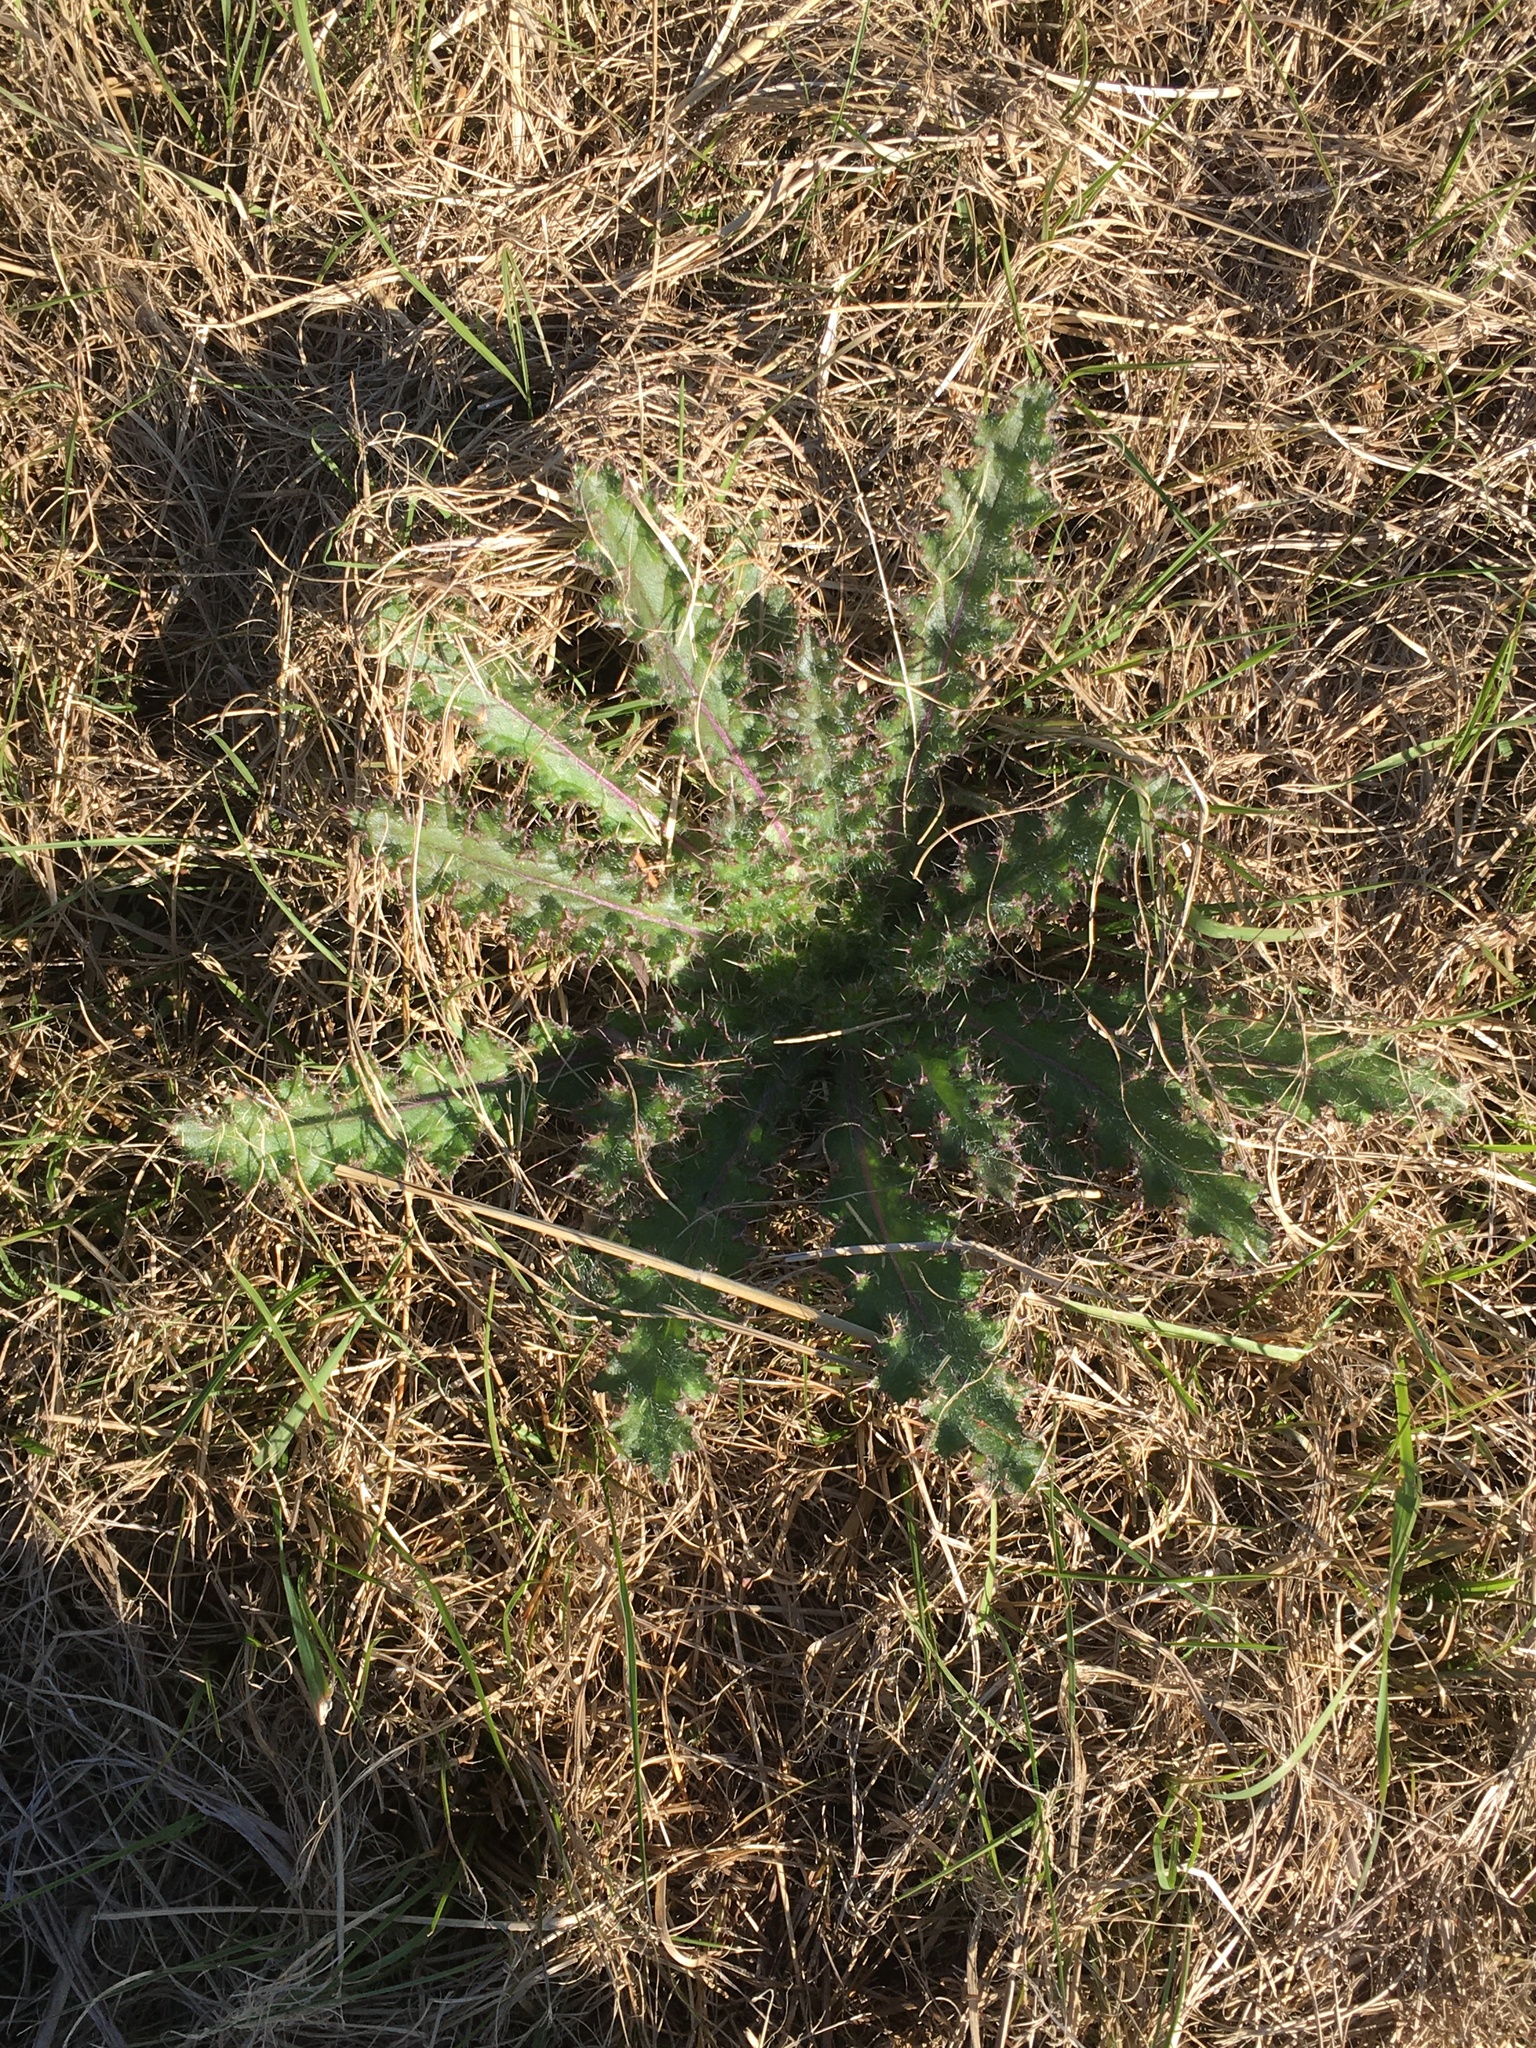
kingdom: Plantae
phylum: Tracheophyta
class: Magnoliopsida
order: Asterales
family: Asteraceae
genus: Cirsium
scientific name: Cirsium horridulum
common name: Bristly thistle
